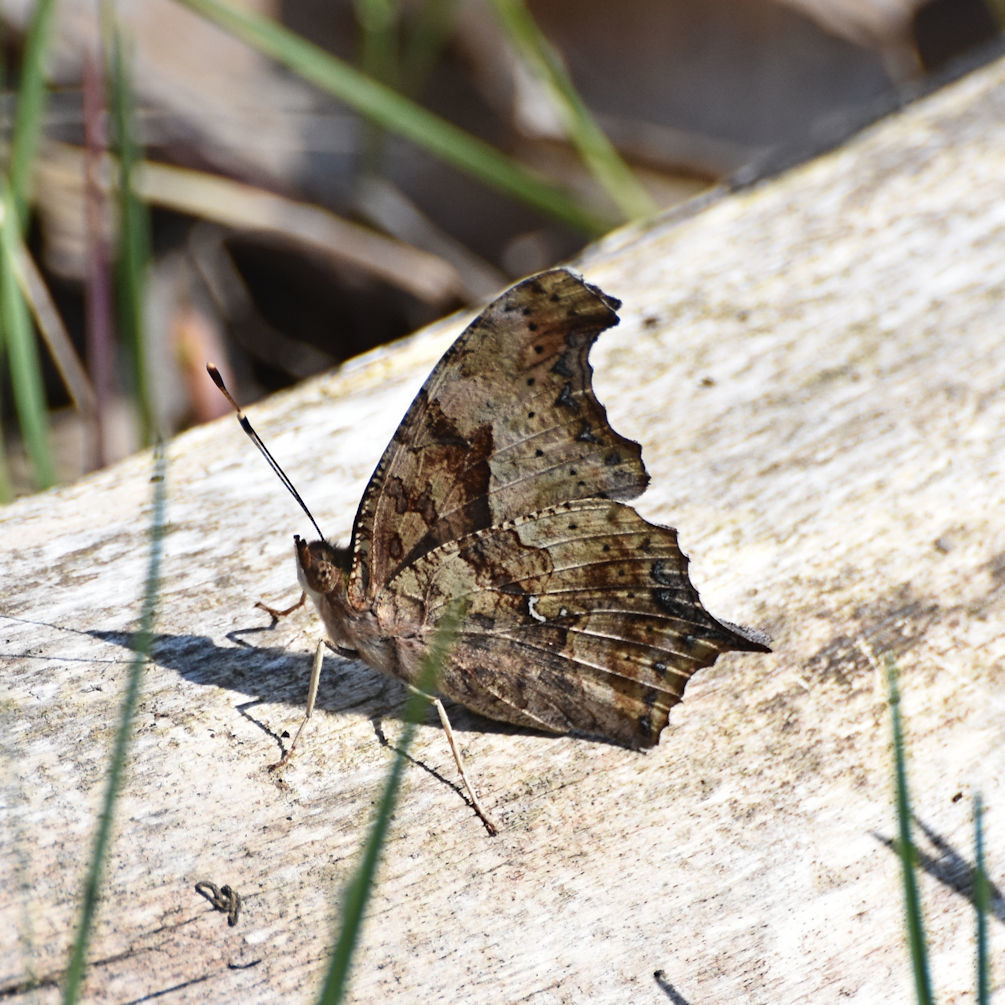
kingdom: Animalia
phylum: Arthropoda
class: Insecta
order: Lepidoptera
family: Nymphalidae
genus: Polygonia
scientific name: Polygonia interrogationis
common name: Question mark
